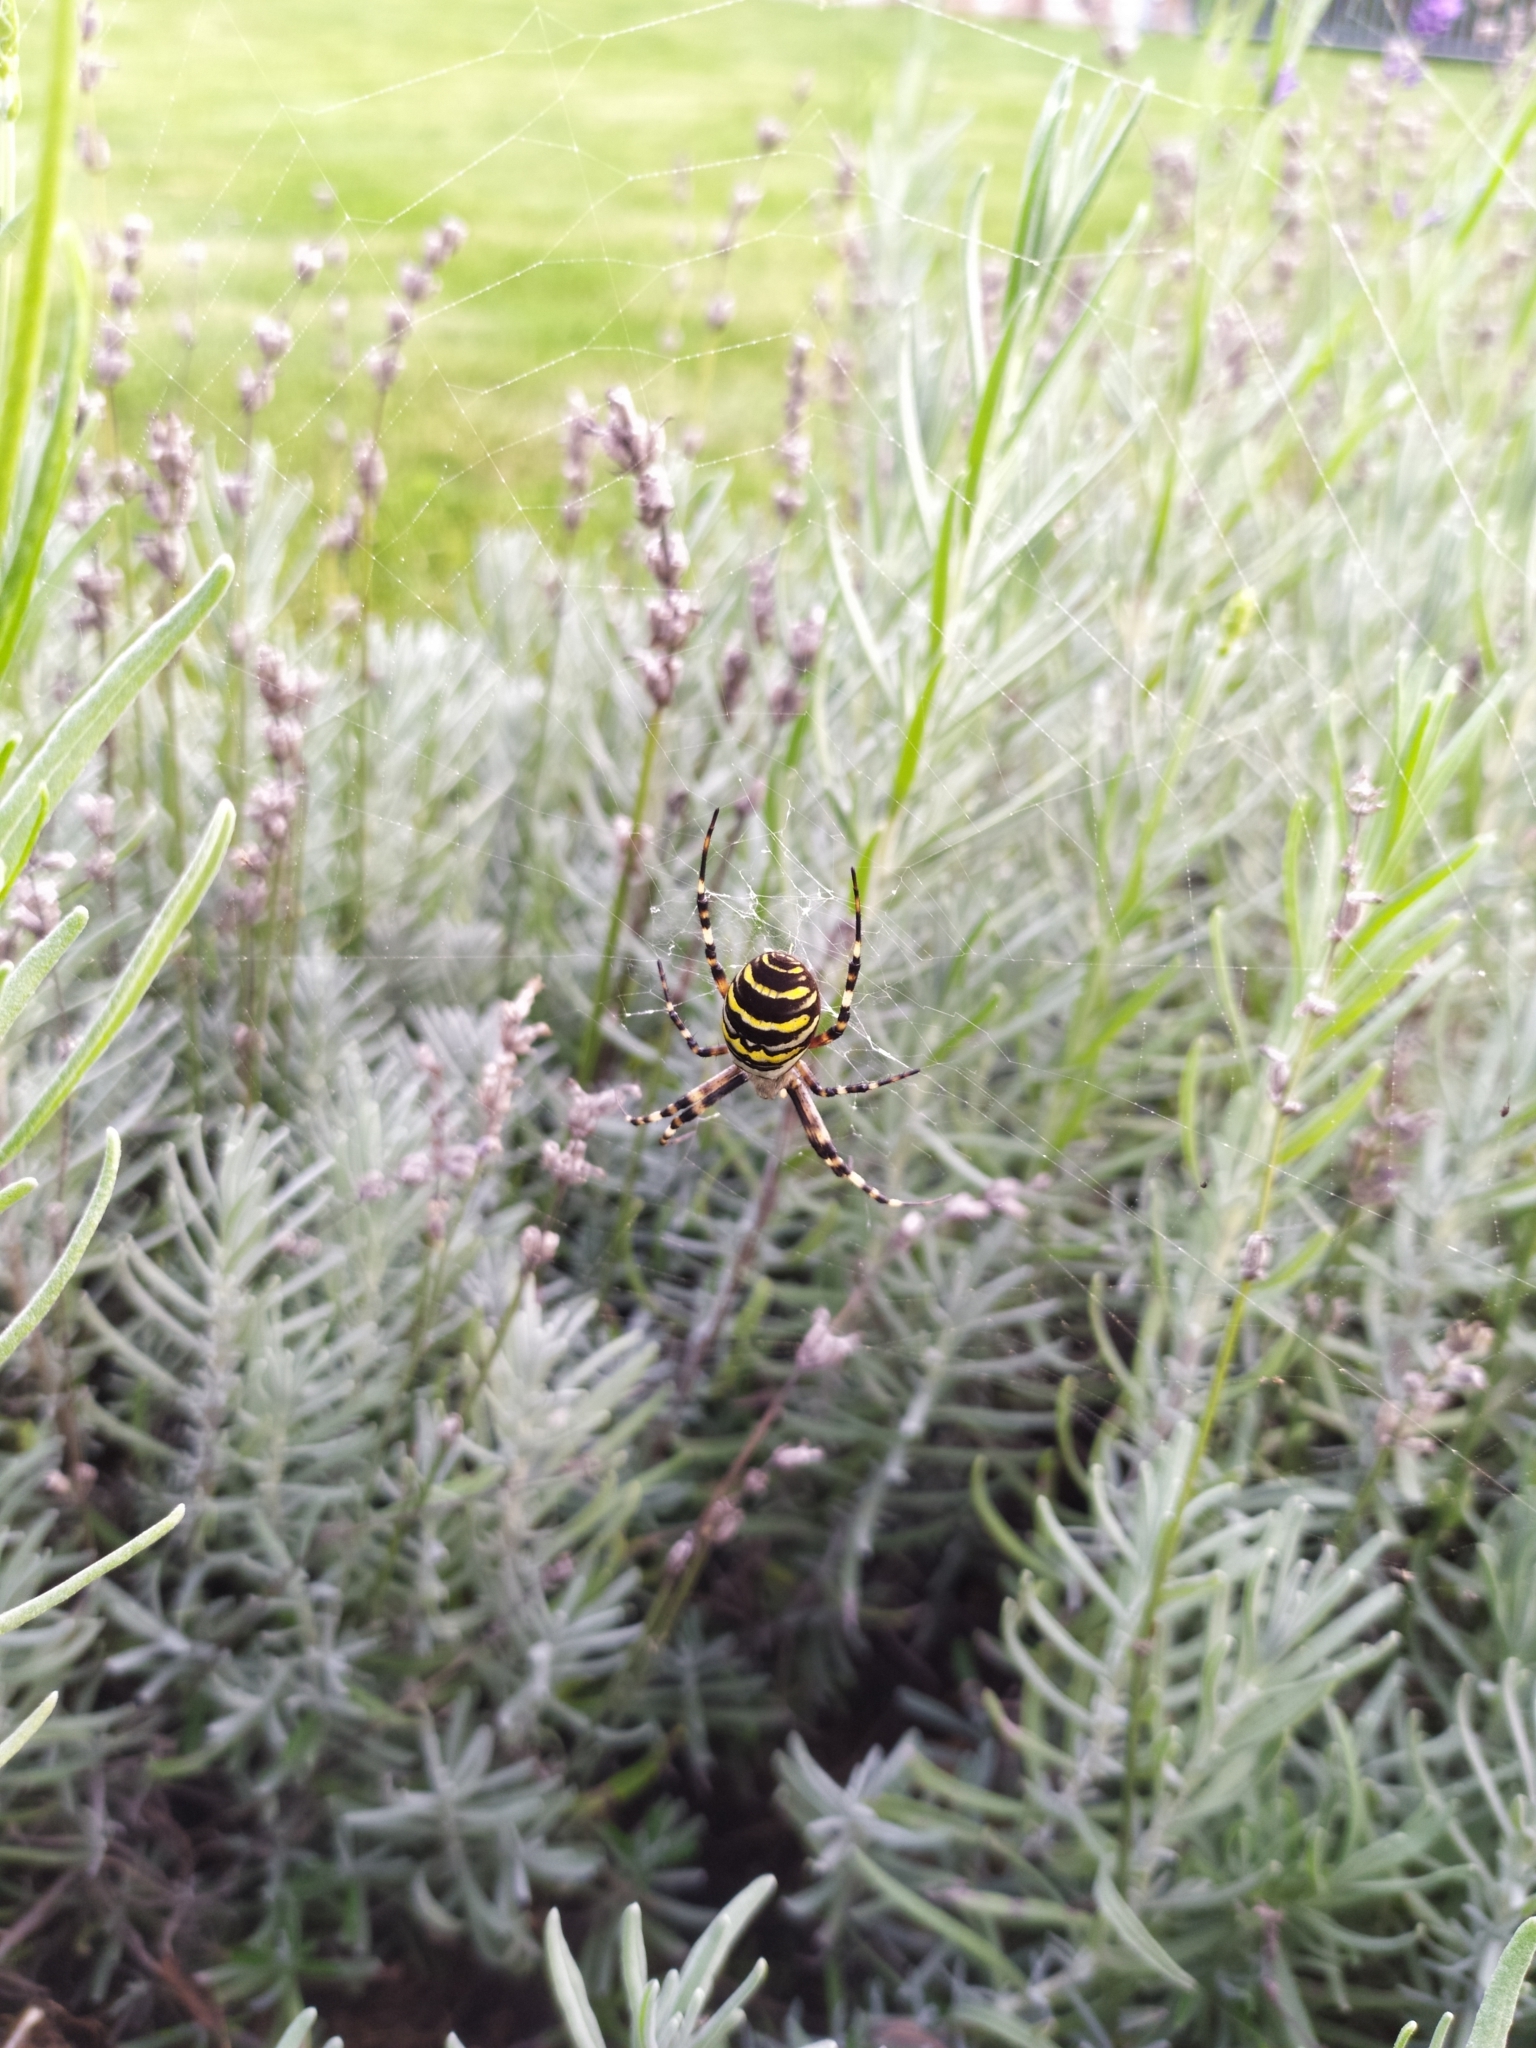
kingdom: Animalia
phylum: Arthropoda
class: Arachnida
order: Araneae
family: Araneidae
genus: Argiope
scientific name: Argiope bruennichi
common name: Wasp spider
